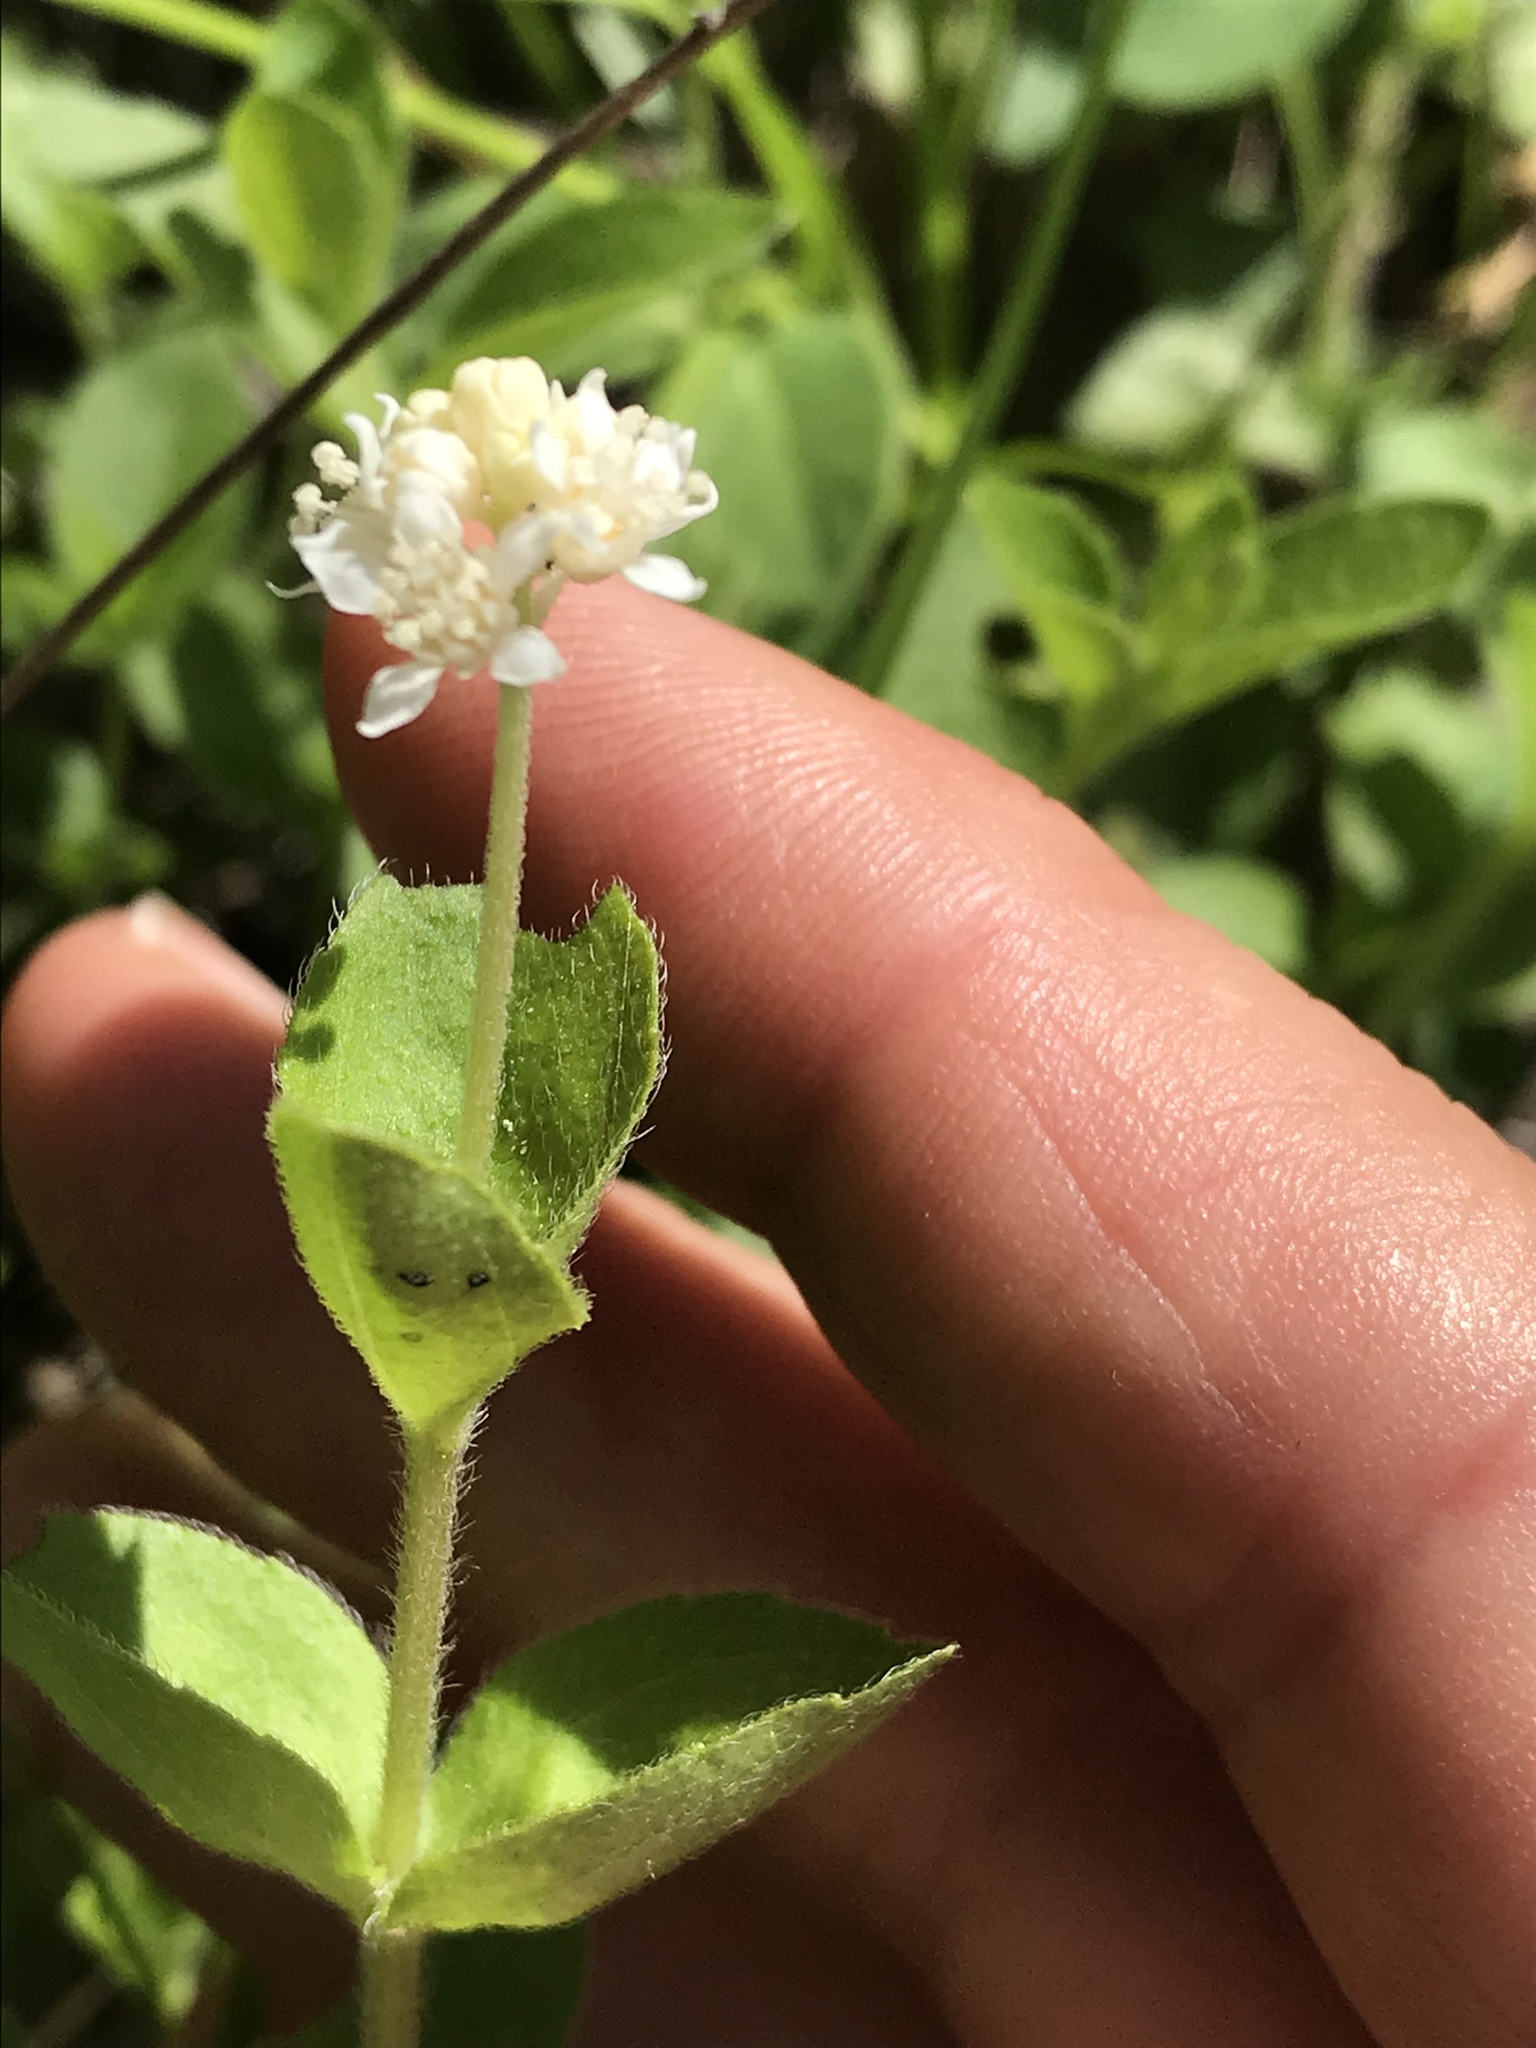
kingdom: Plantae
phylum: Tracheophyta
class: Magnoliopsida
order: Cornales
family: Hydrangeaceae
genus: Whipplea
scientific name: Whipplea modesta
